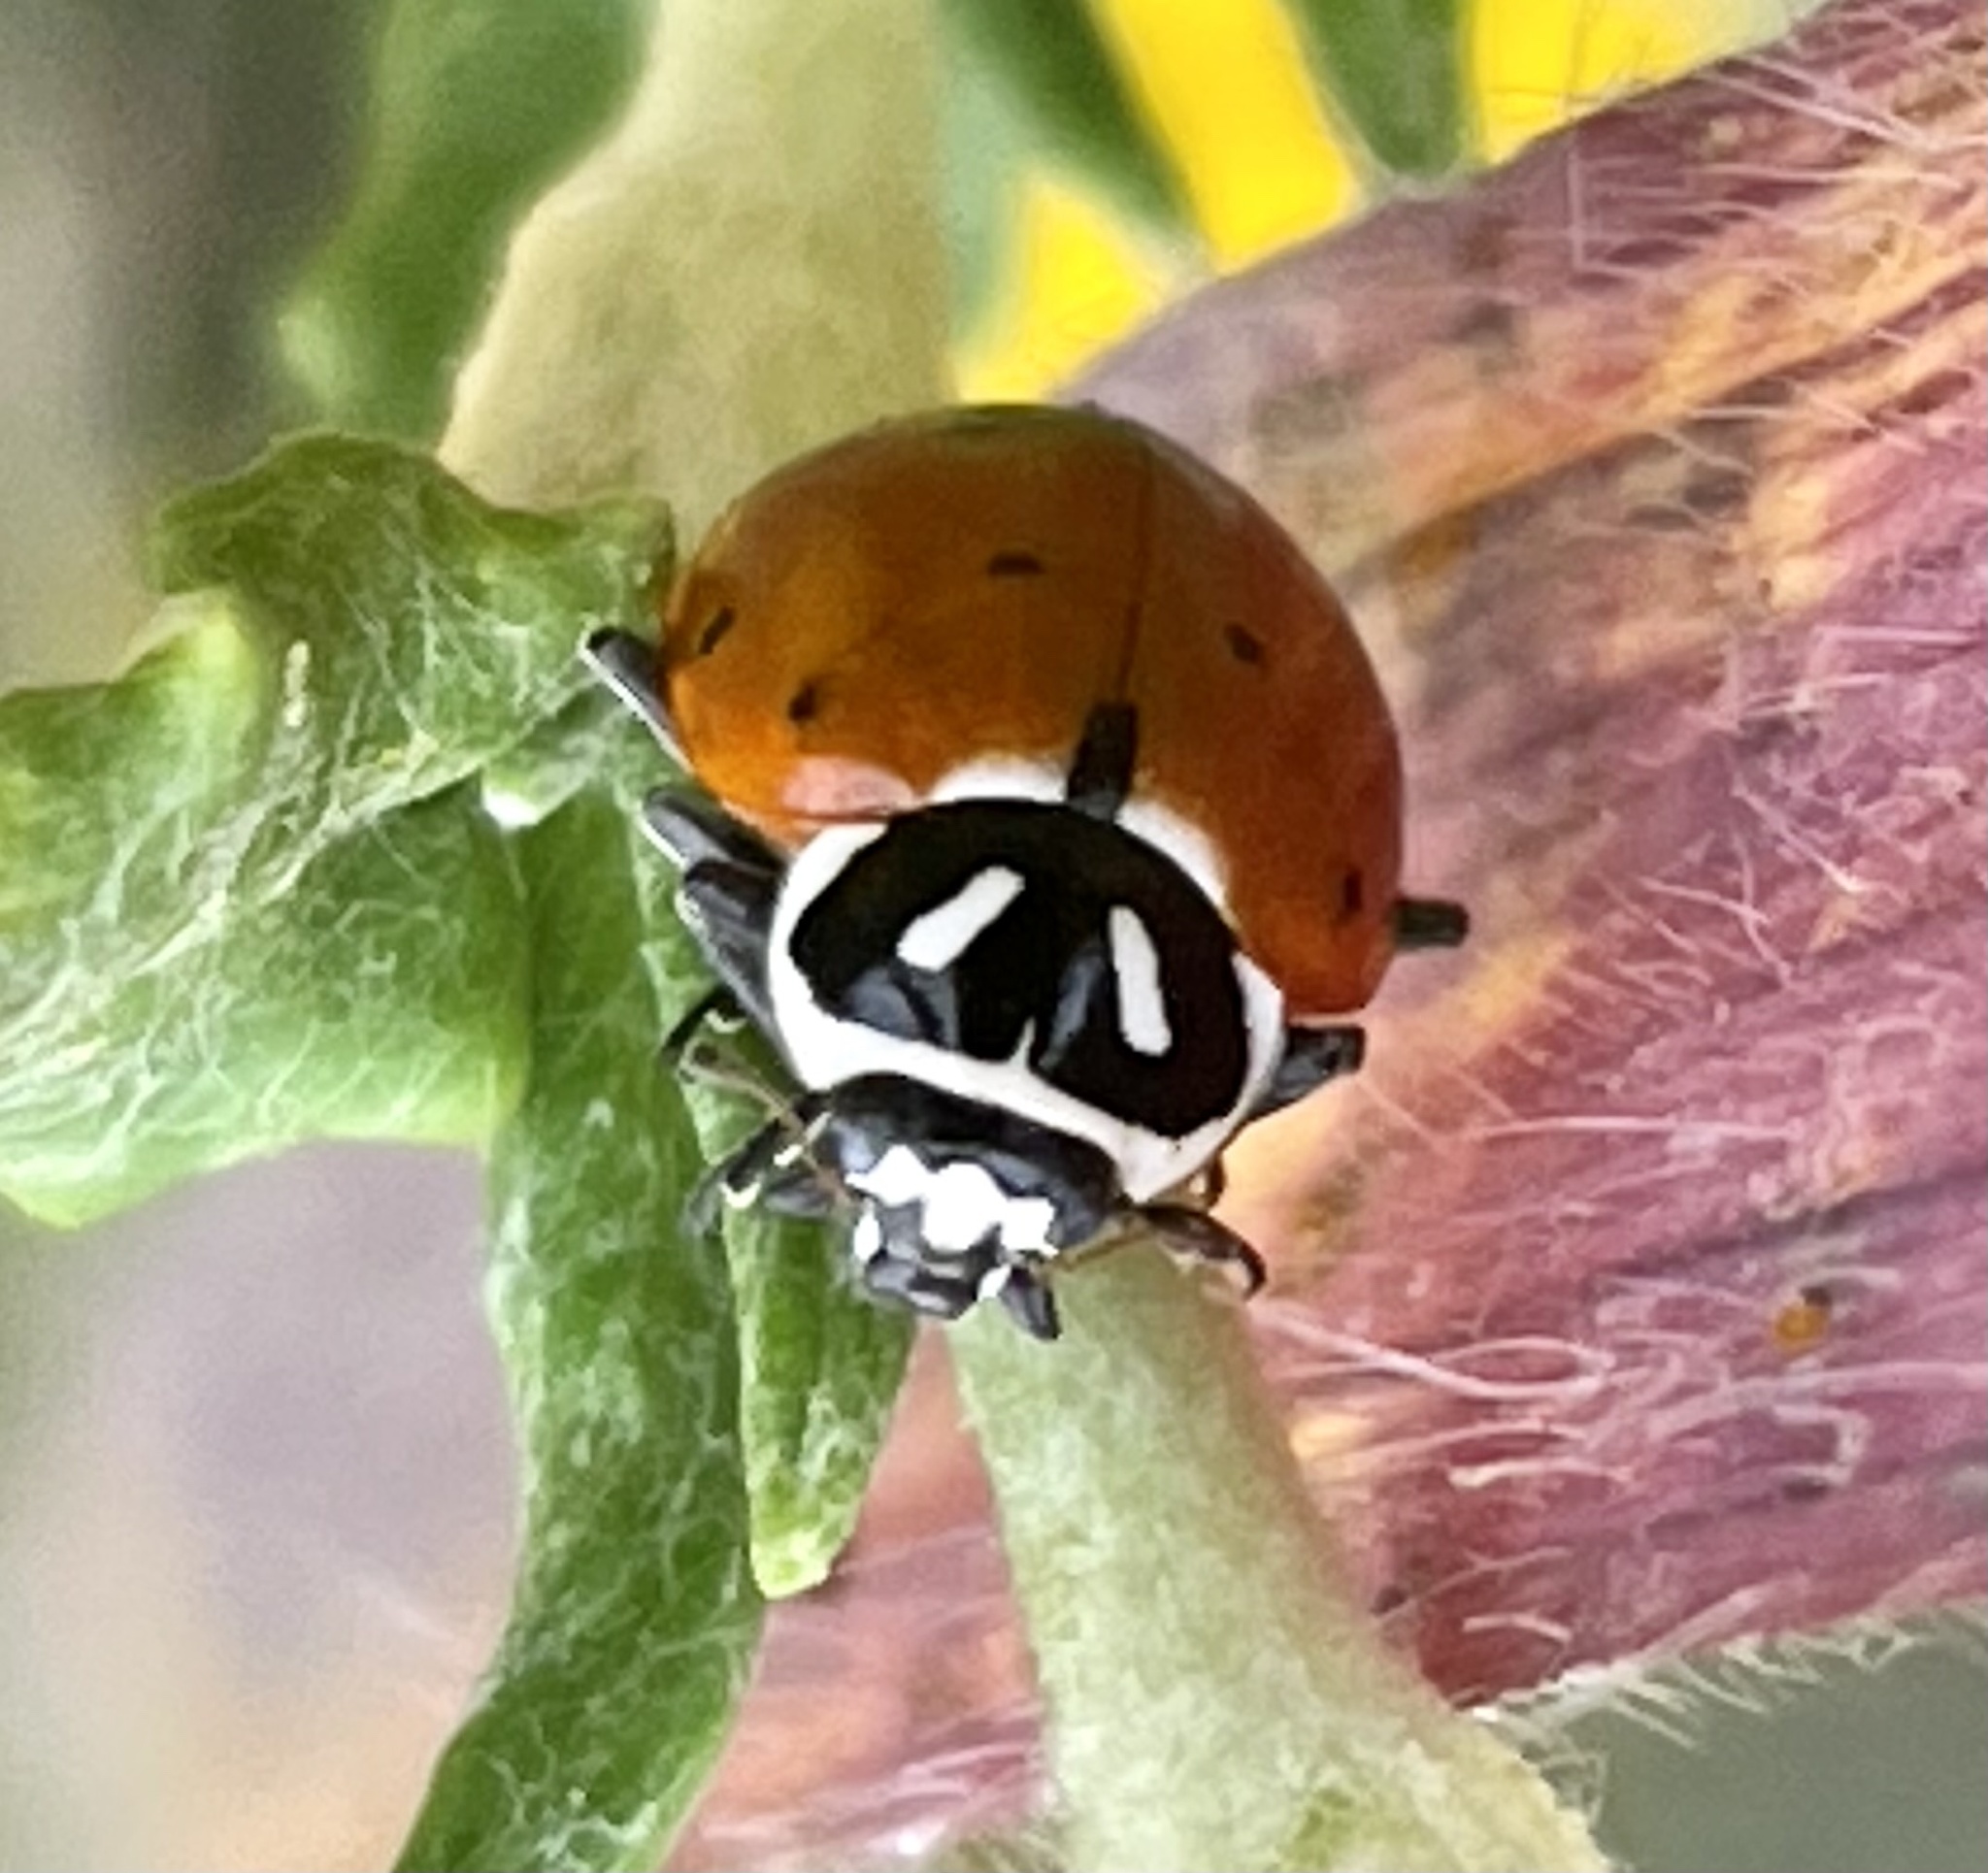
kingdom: Animalia
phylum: Arthropoda
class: Insecta
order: Coleoptera
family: Coccinellidae
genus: Hippodamia
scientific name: Hippodamia convergens
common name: Convergent lady beetle
